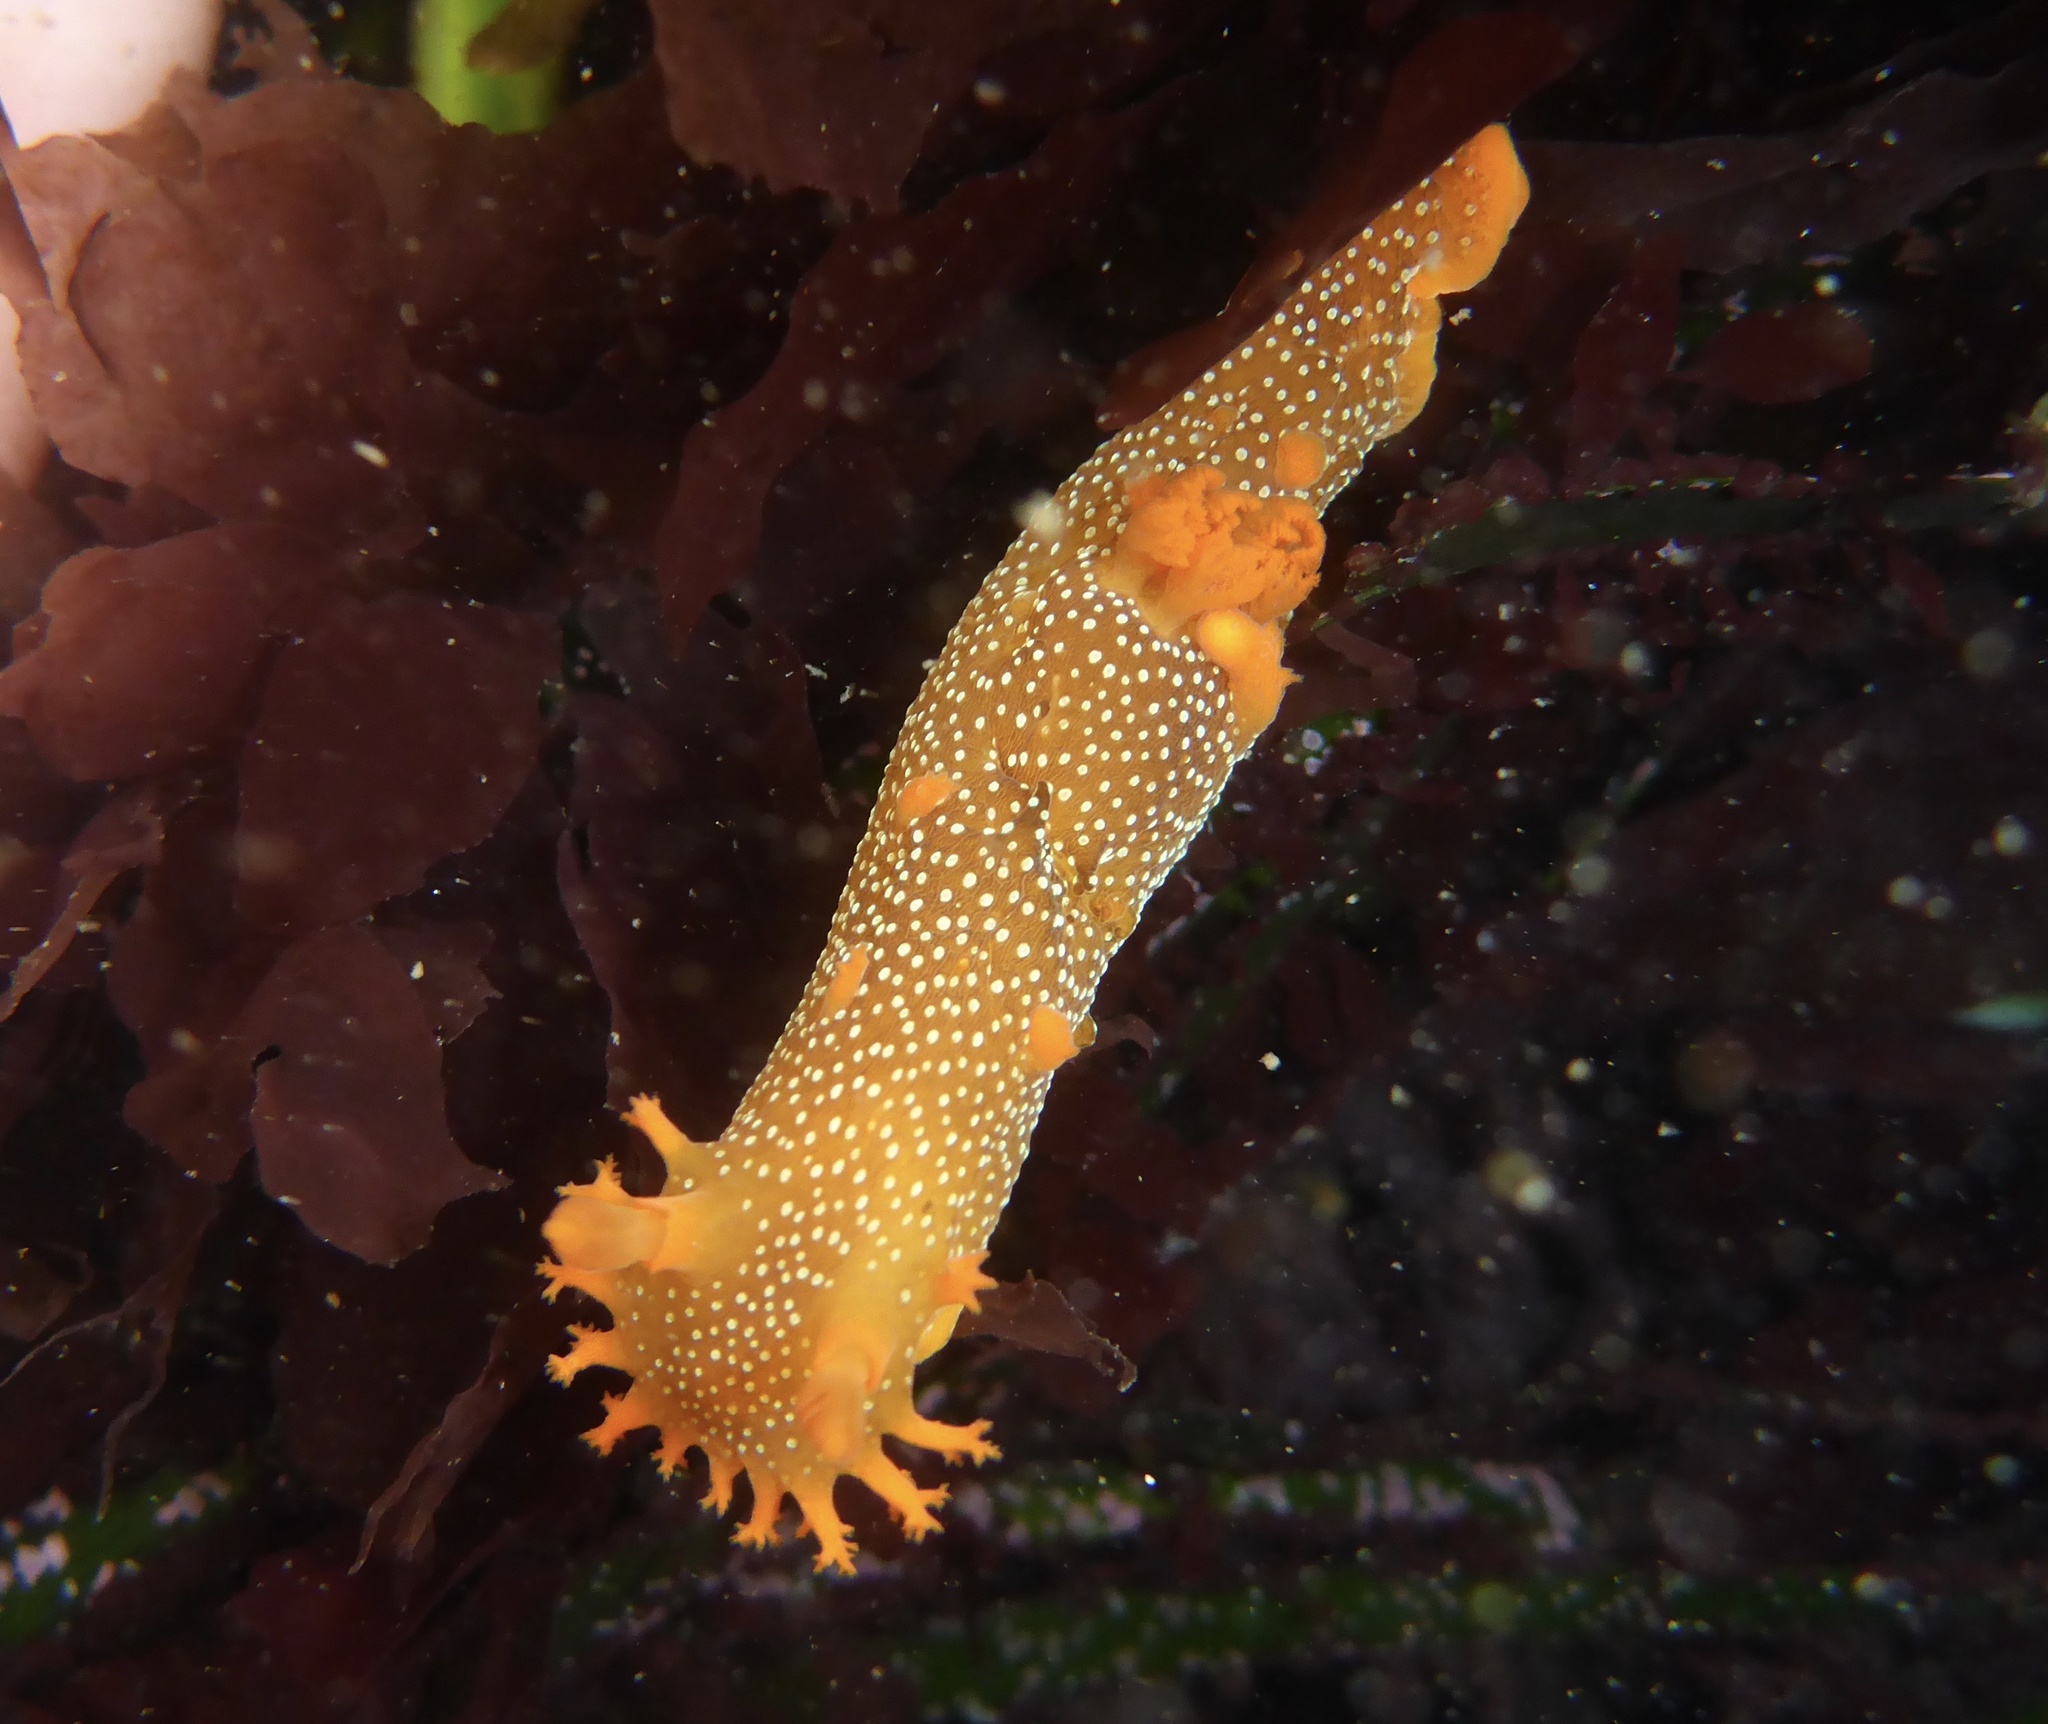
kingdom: Animalia
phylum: Mollusca
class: Gastropoda
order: Nudibranchia
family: Polyceridae
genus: Triopha
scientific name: Triopha maculata
